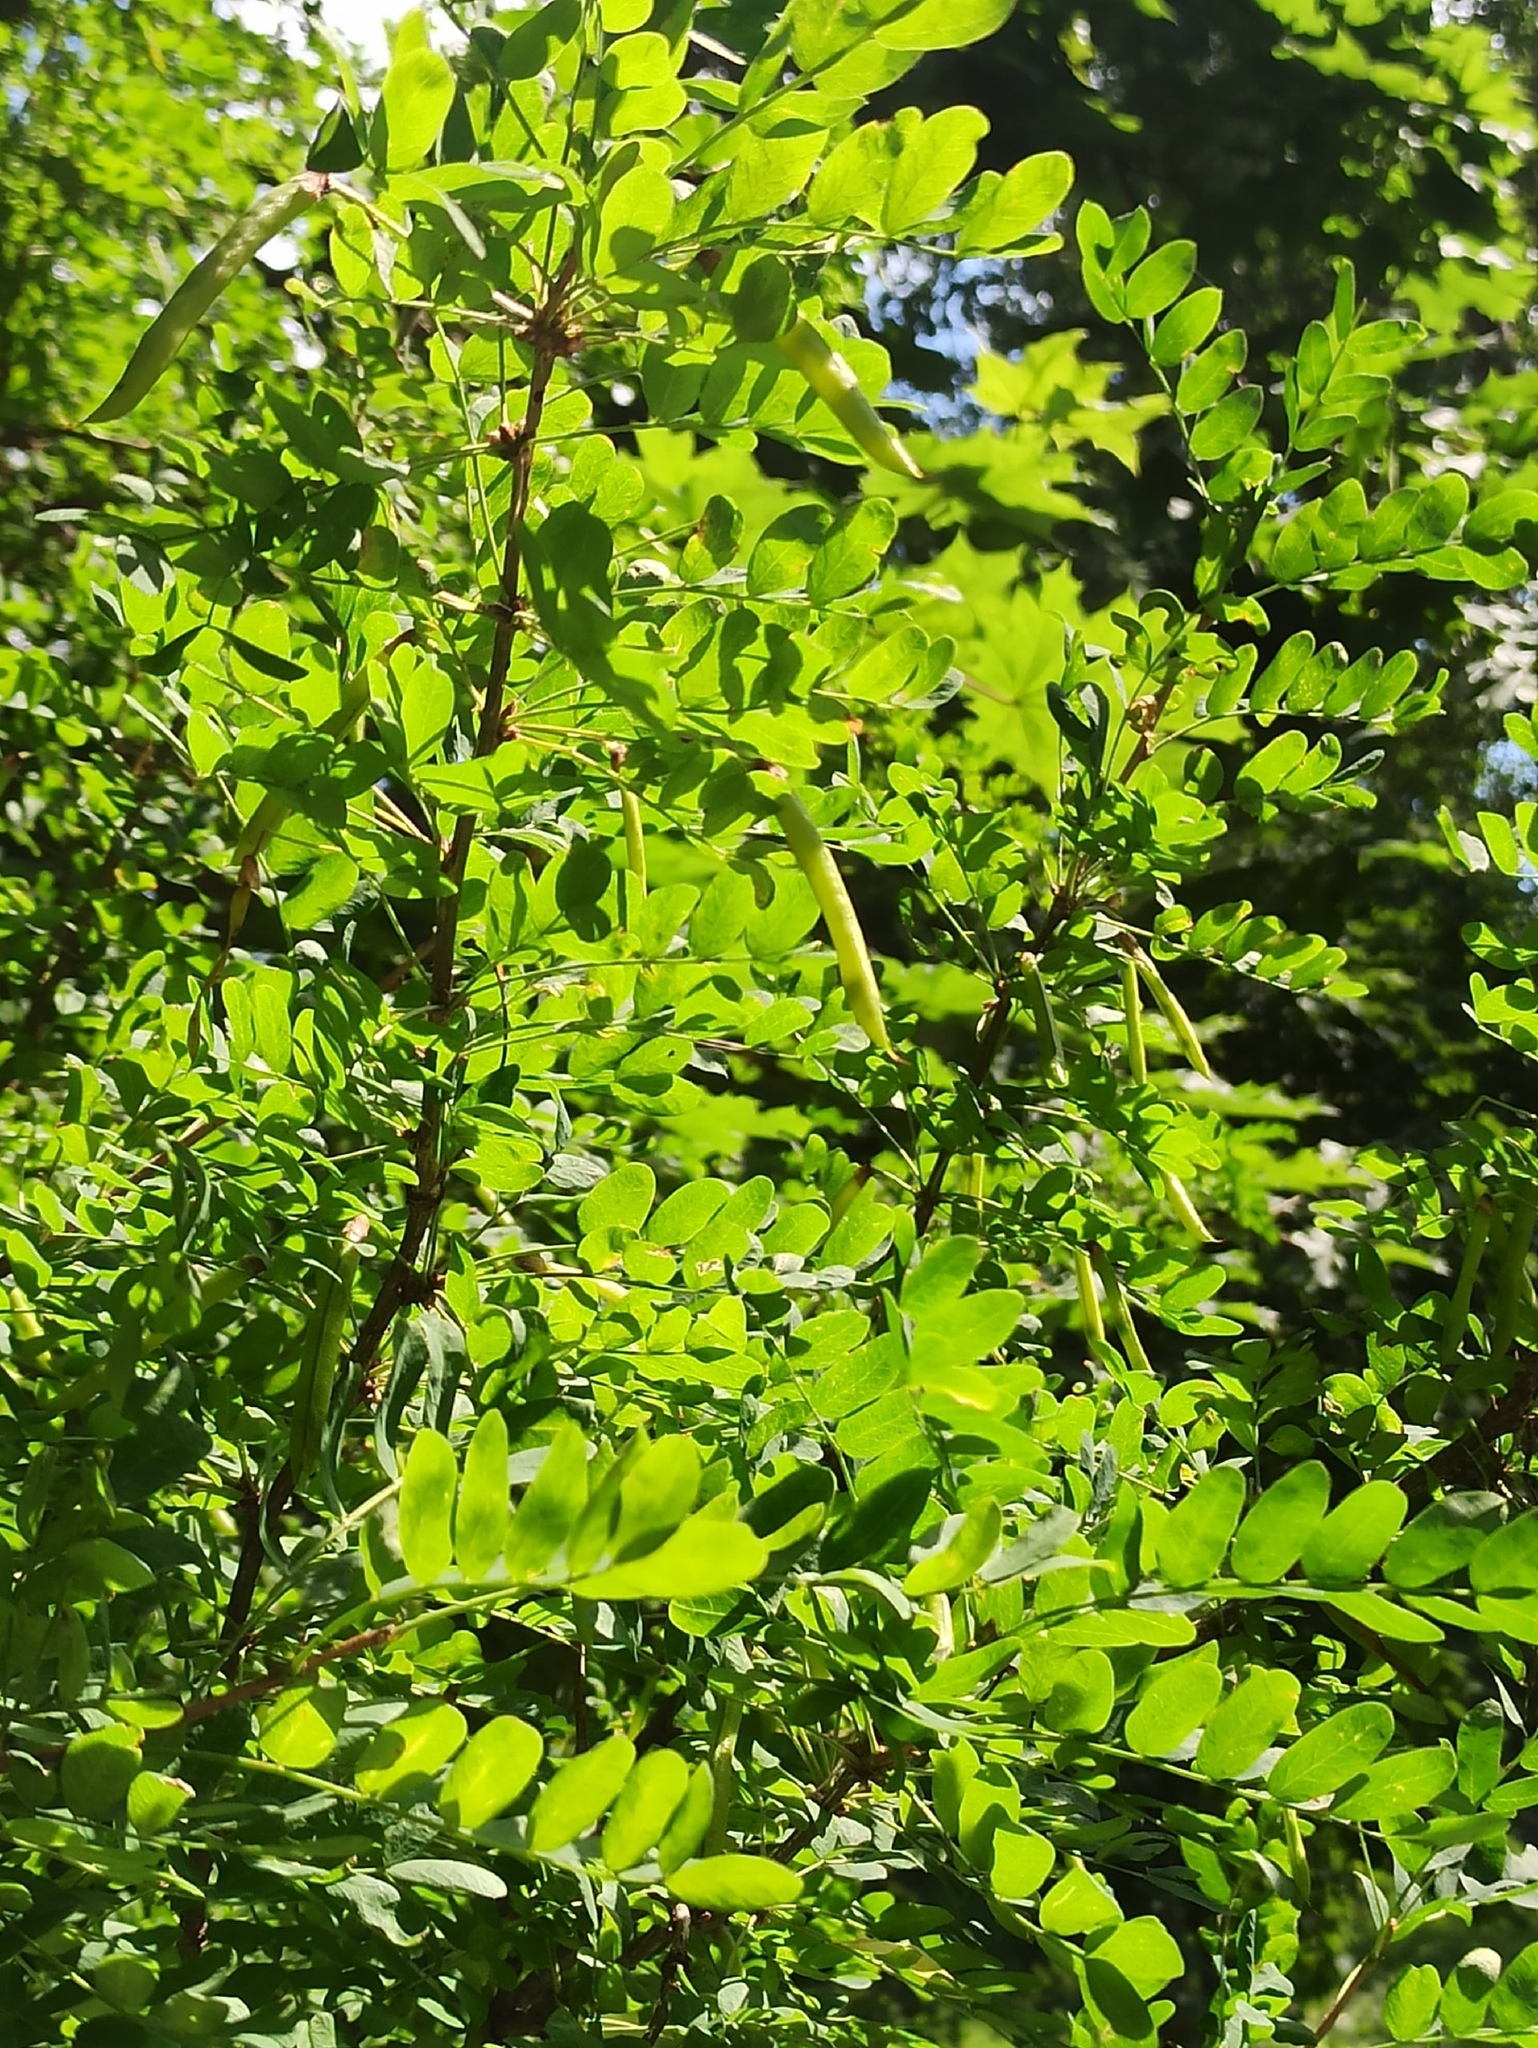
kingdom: Plantae
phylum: Tracheophyta
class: Magnoliopsida
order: Fabales
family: Fabaceae
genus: Caragana
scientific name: Caragana arborescens
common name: Siberian peashrub
